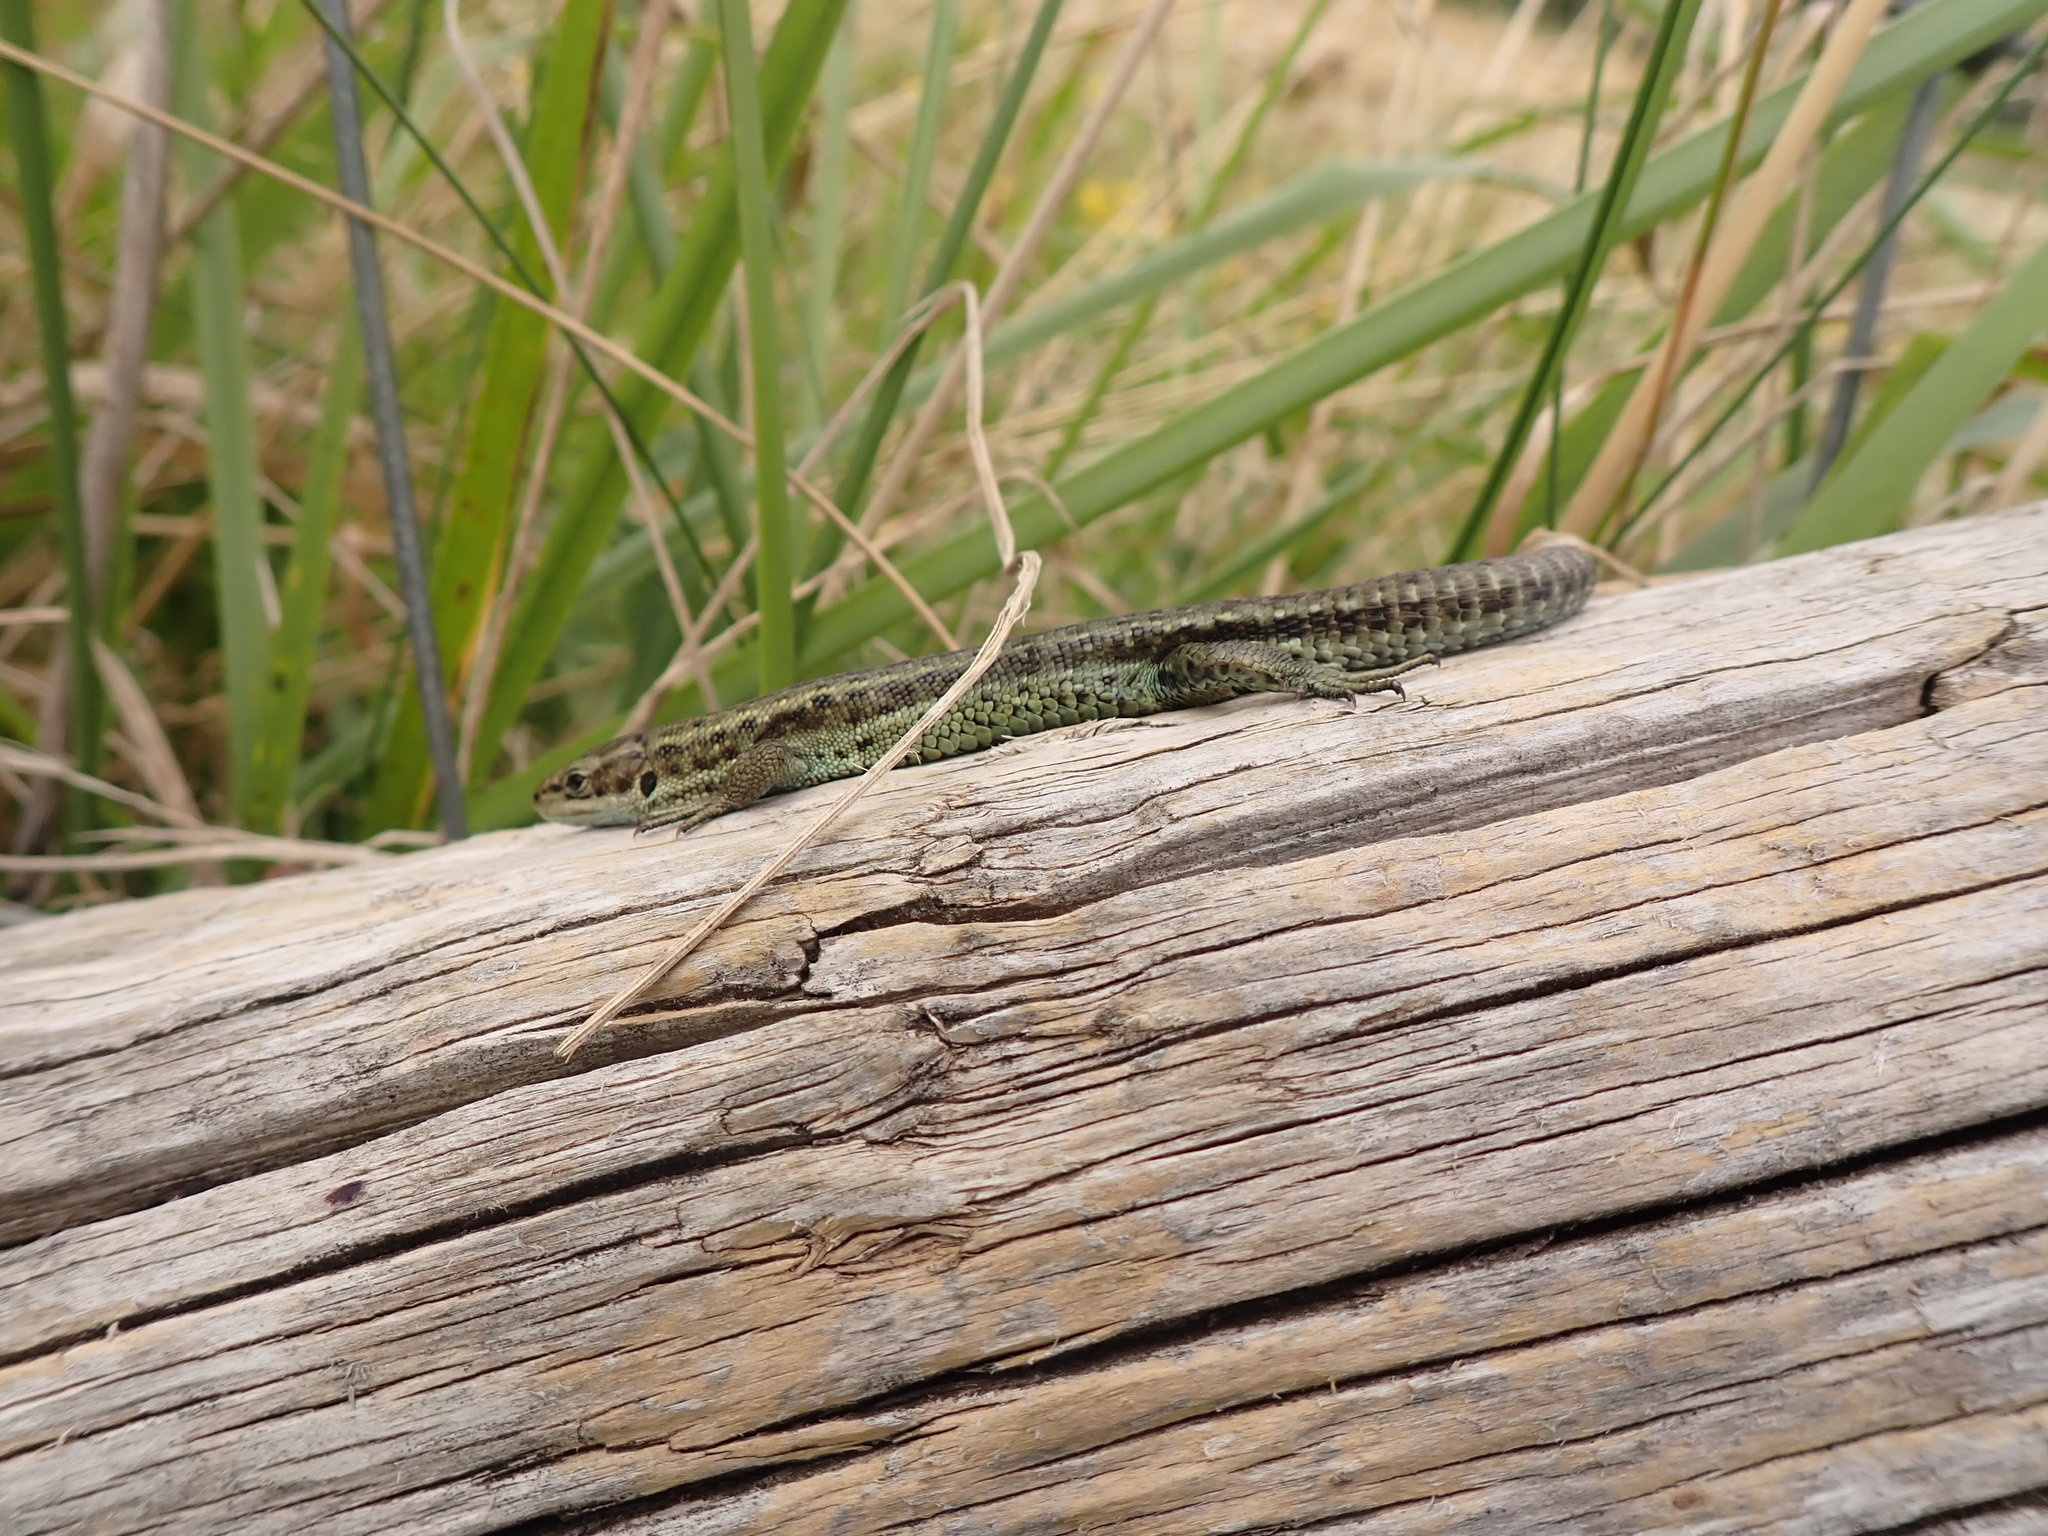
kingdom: Animalia
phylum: Chordata
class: Squamata
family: Lacertidae
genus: Zootoca
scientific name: Zootoca vivipara
